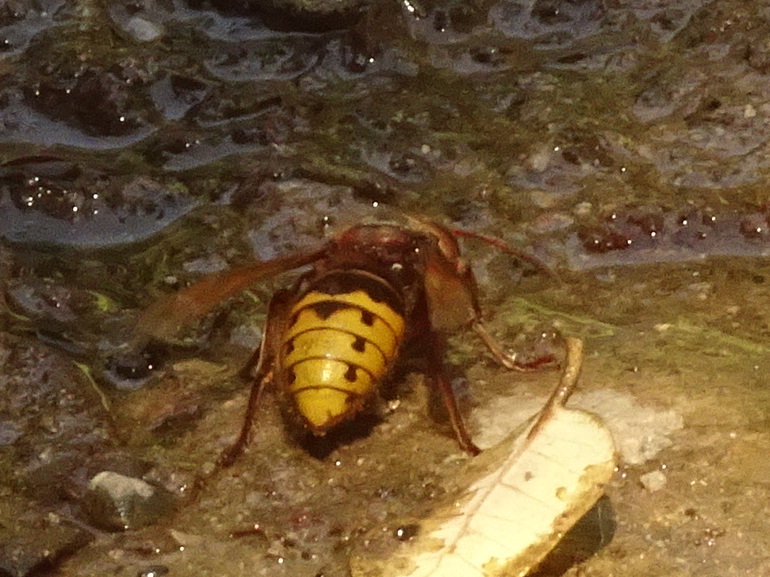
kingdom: Animalia
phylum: Arthropoda
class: Insecta
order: Hymenoptera
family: Vespidae
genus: Vespa
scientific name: Vespa crabro
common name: Hornet
